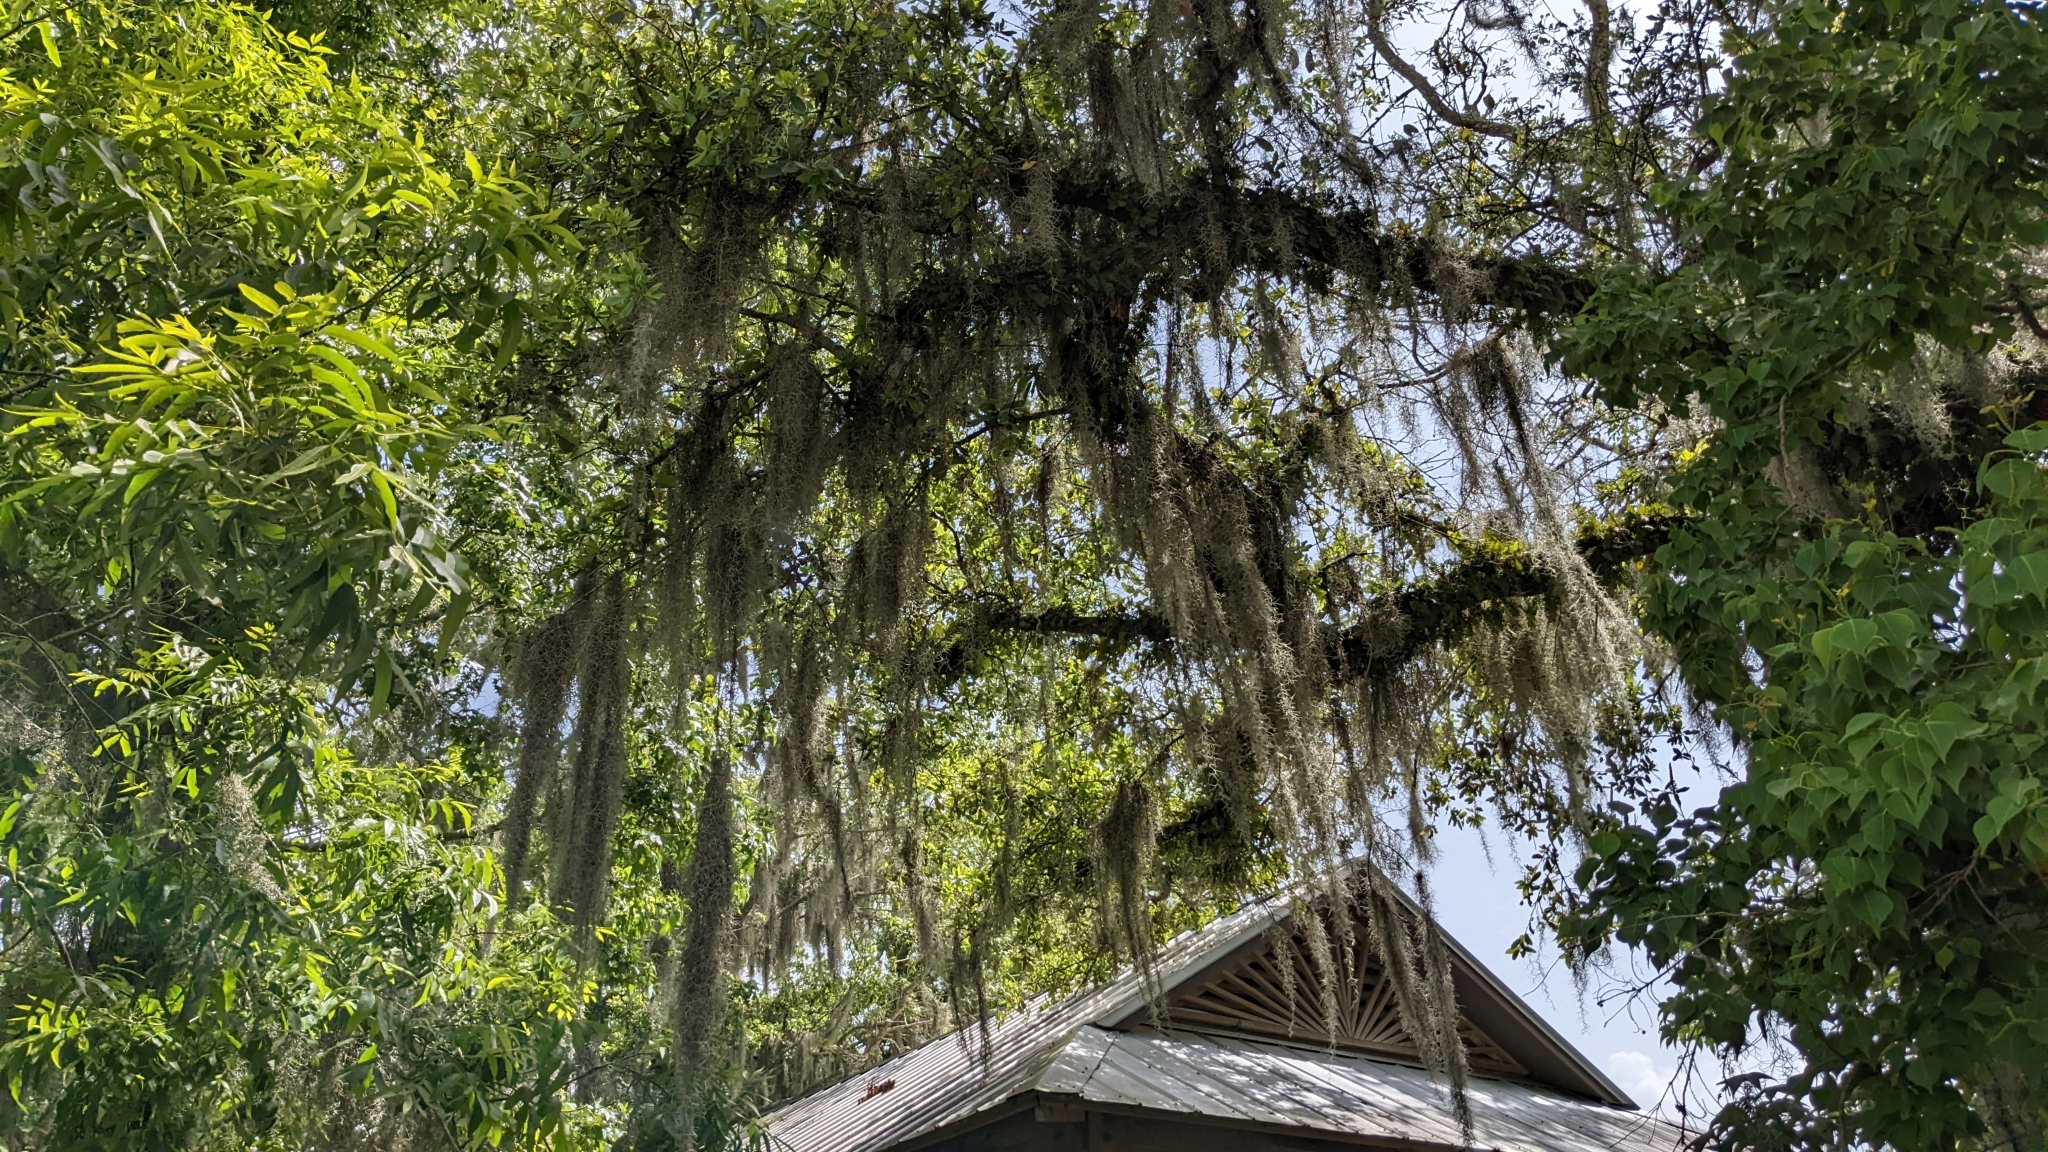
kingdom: Plantae
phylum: Tracheophyta
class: Liliopsida
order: Poales
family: Bromeliaceae
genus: Tillandsia
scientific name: Tillandsia usneoides
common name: Spanish moss
